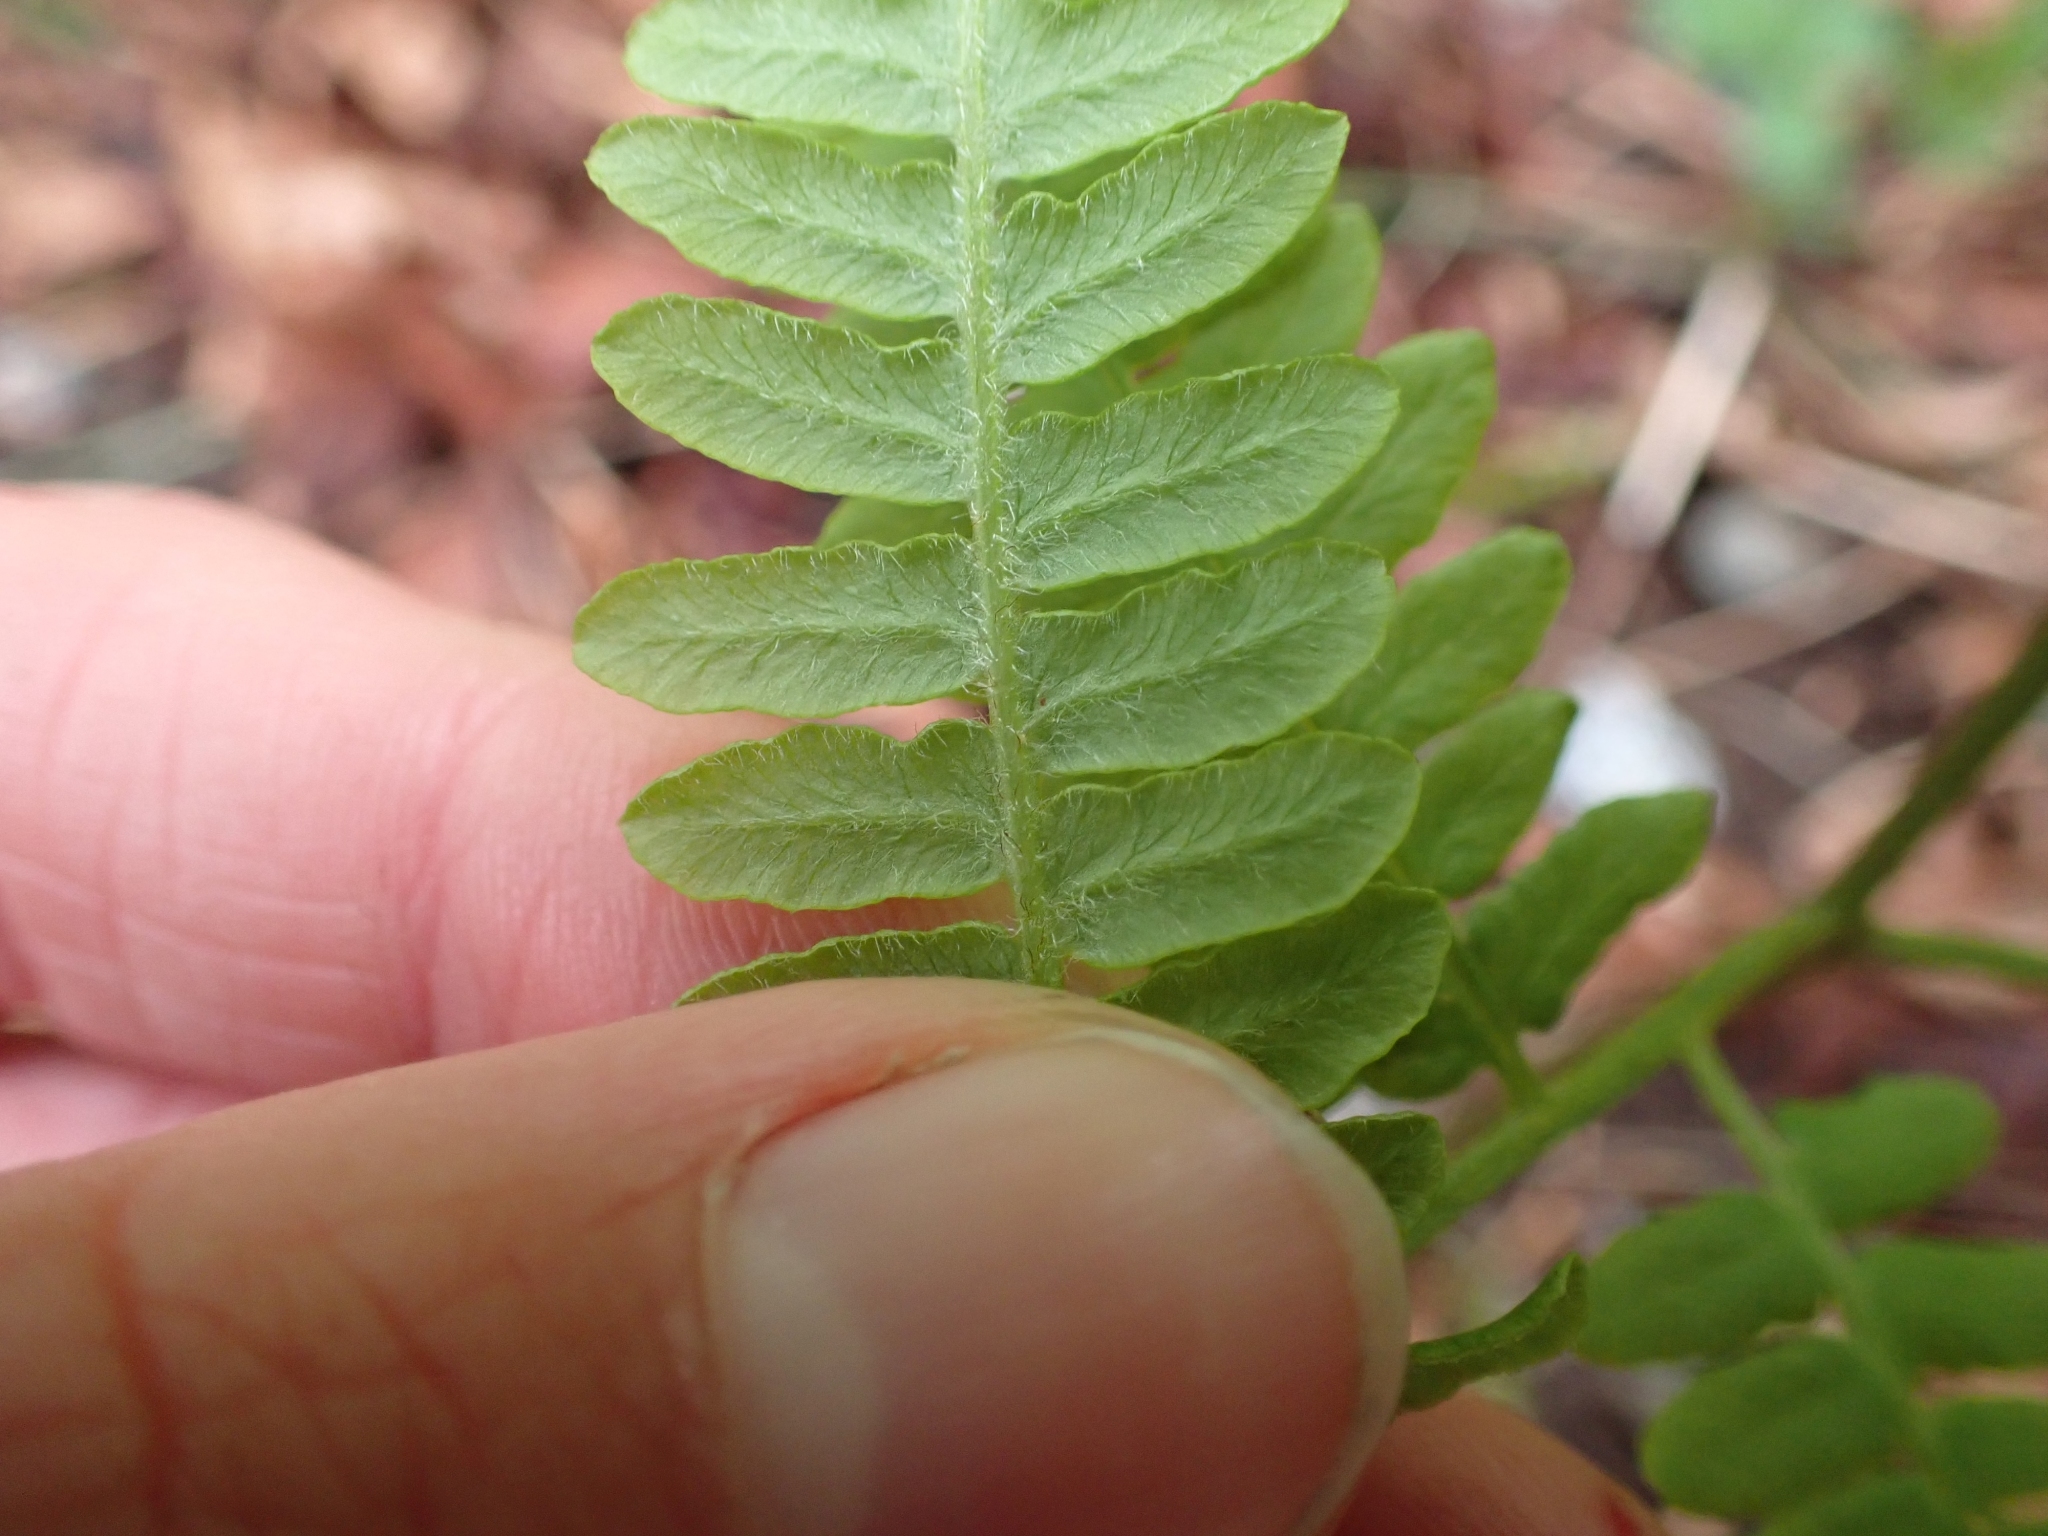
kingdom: Plantae
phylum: Tracheophyta
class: Polypodiopsida
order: Polypodiales
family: Dennstaedtiaceae
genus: Pteridium
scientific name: Pteridium aquilinum
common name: Bracken
